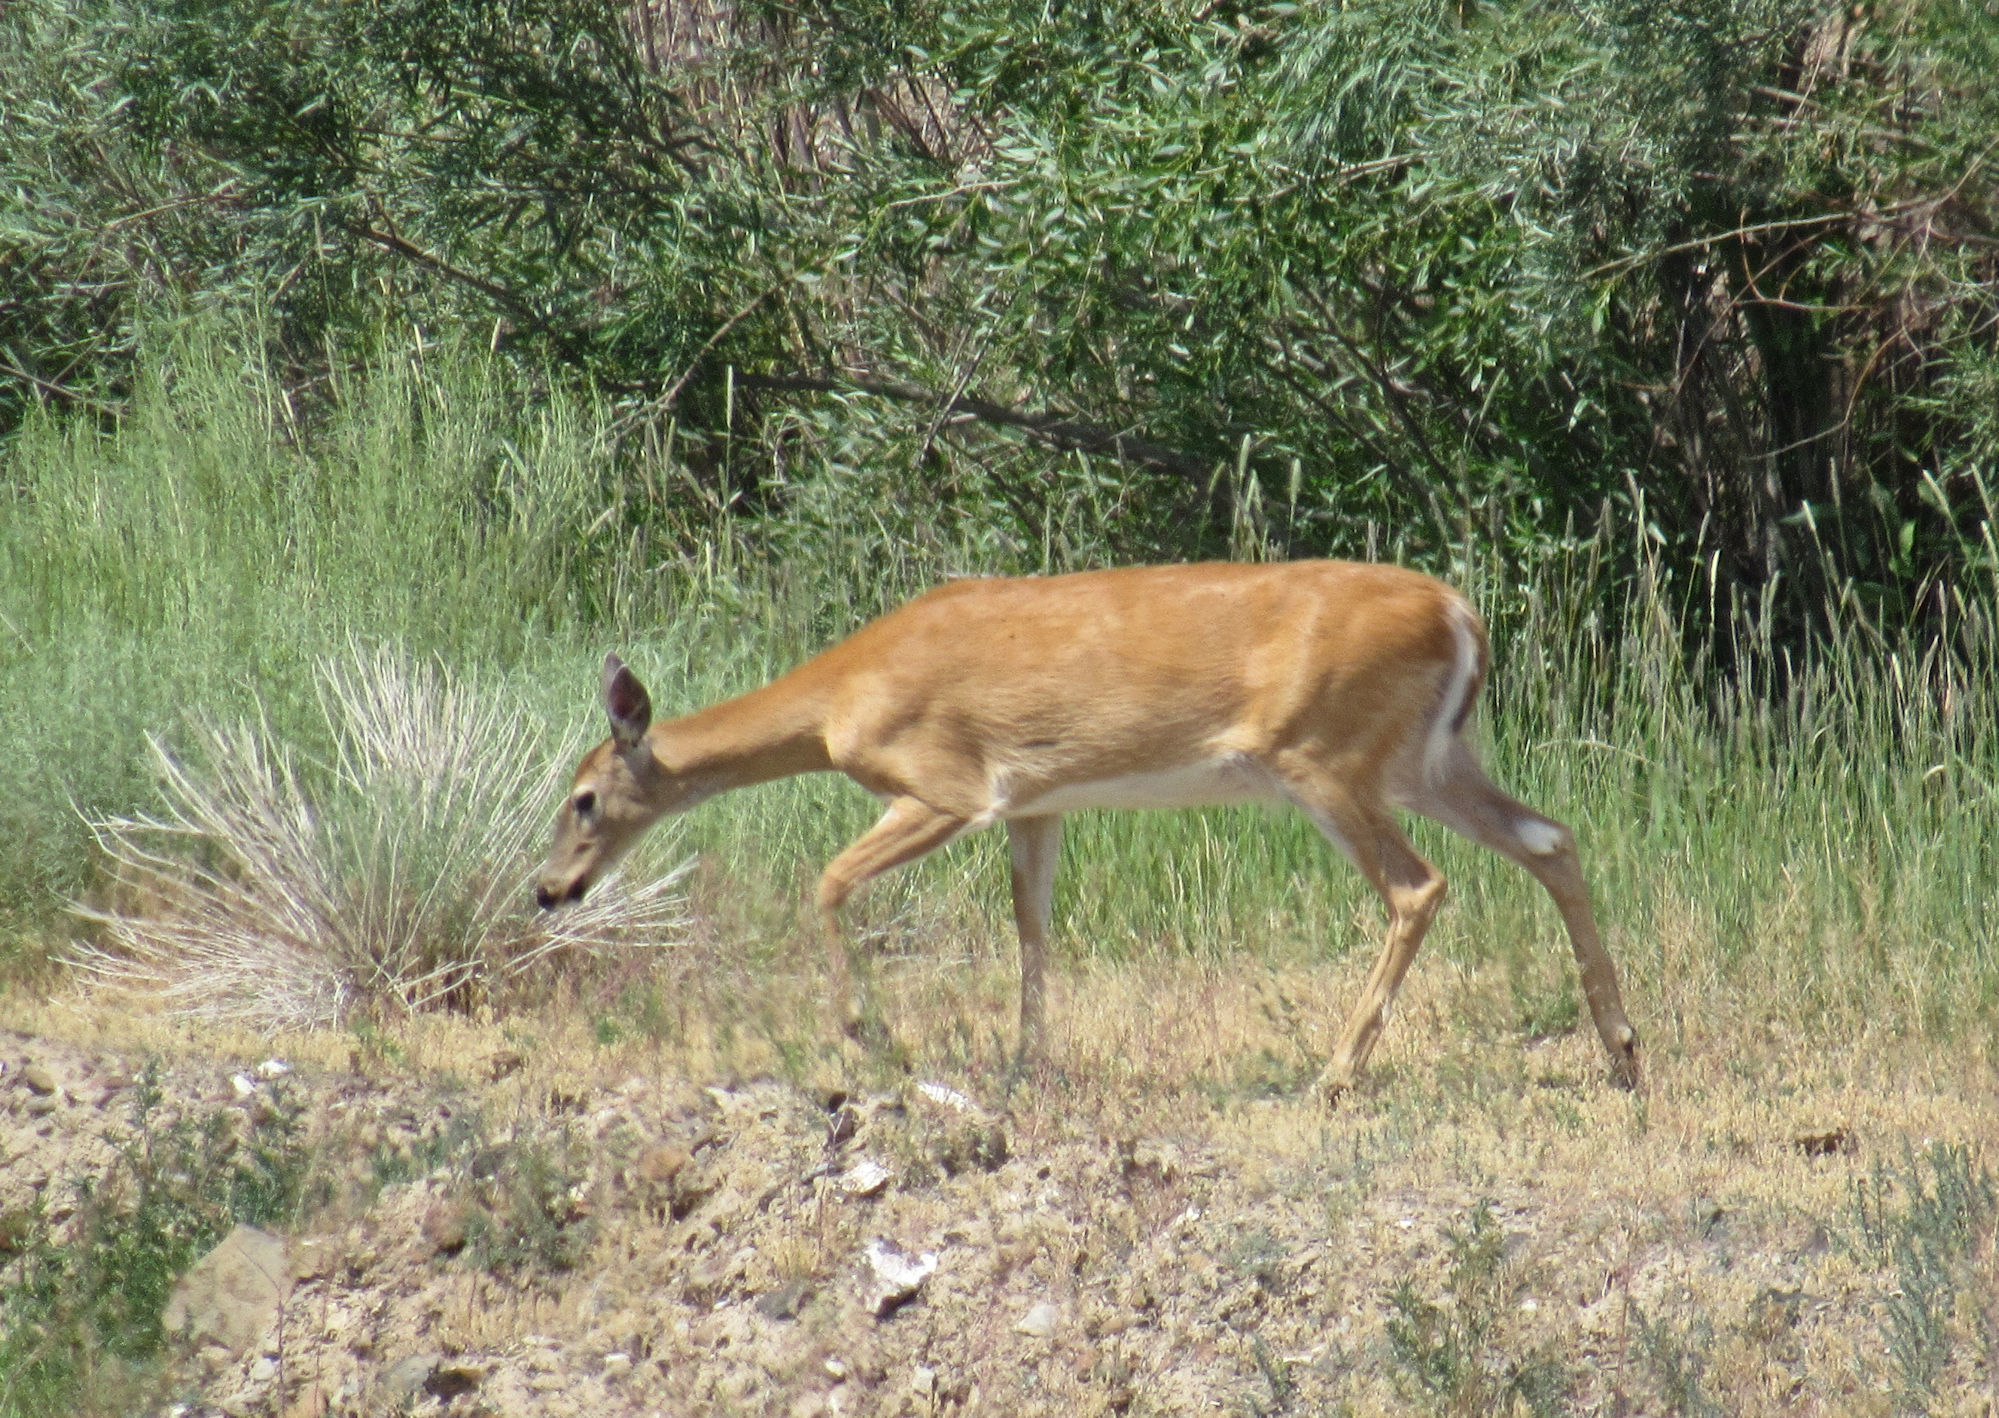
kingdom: Animalia
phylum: Chordata
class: Mammalia
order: Artiodactyla
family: Cervidae
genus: Odocoileus
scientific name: Odocoileus virginianus
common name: White-tailed deer
